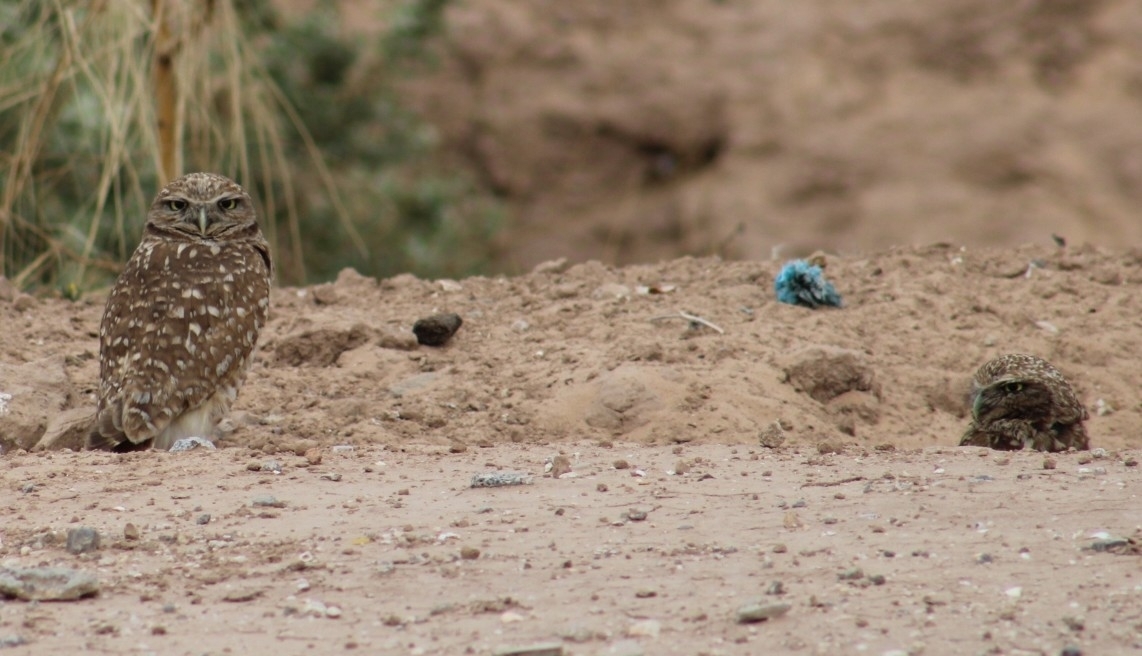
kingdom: Animalia
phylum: Chordata
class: Aves
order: Strigiformes
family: Strigidae
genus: Athene
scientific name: Athene cunicularia
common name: Burrowing owl
